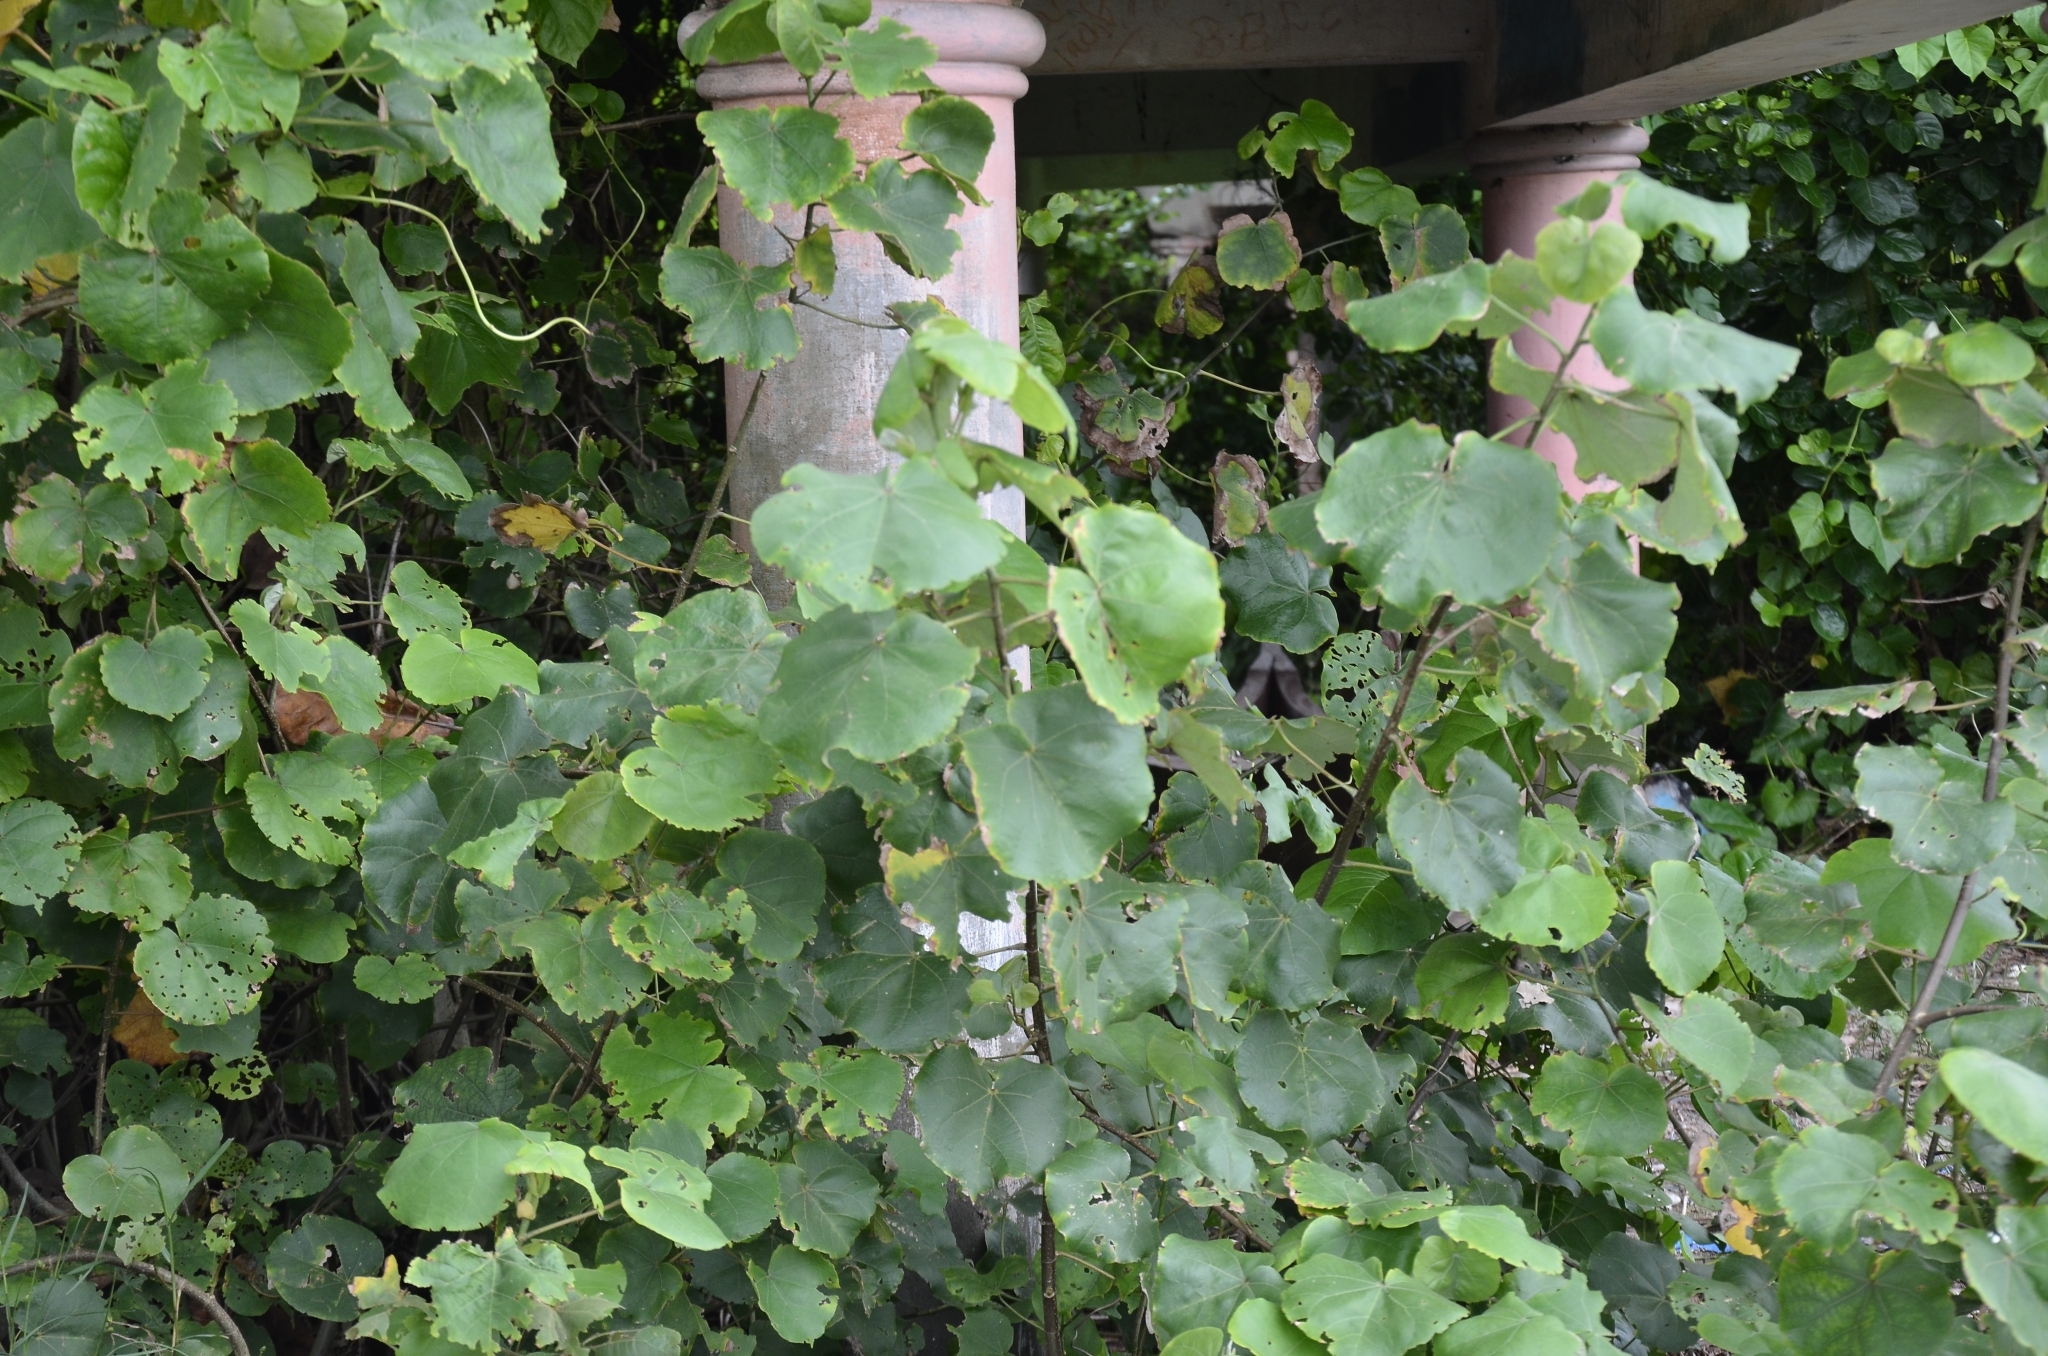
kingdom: Plantae
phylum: Tracheophyta
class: Magnoliopsida
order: Malvales
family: Malvaceae
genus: Talipariti
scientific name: Talipariti tiliaceum
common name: Sea hibiscus
